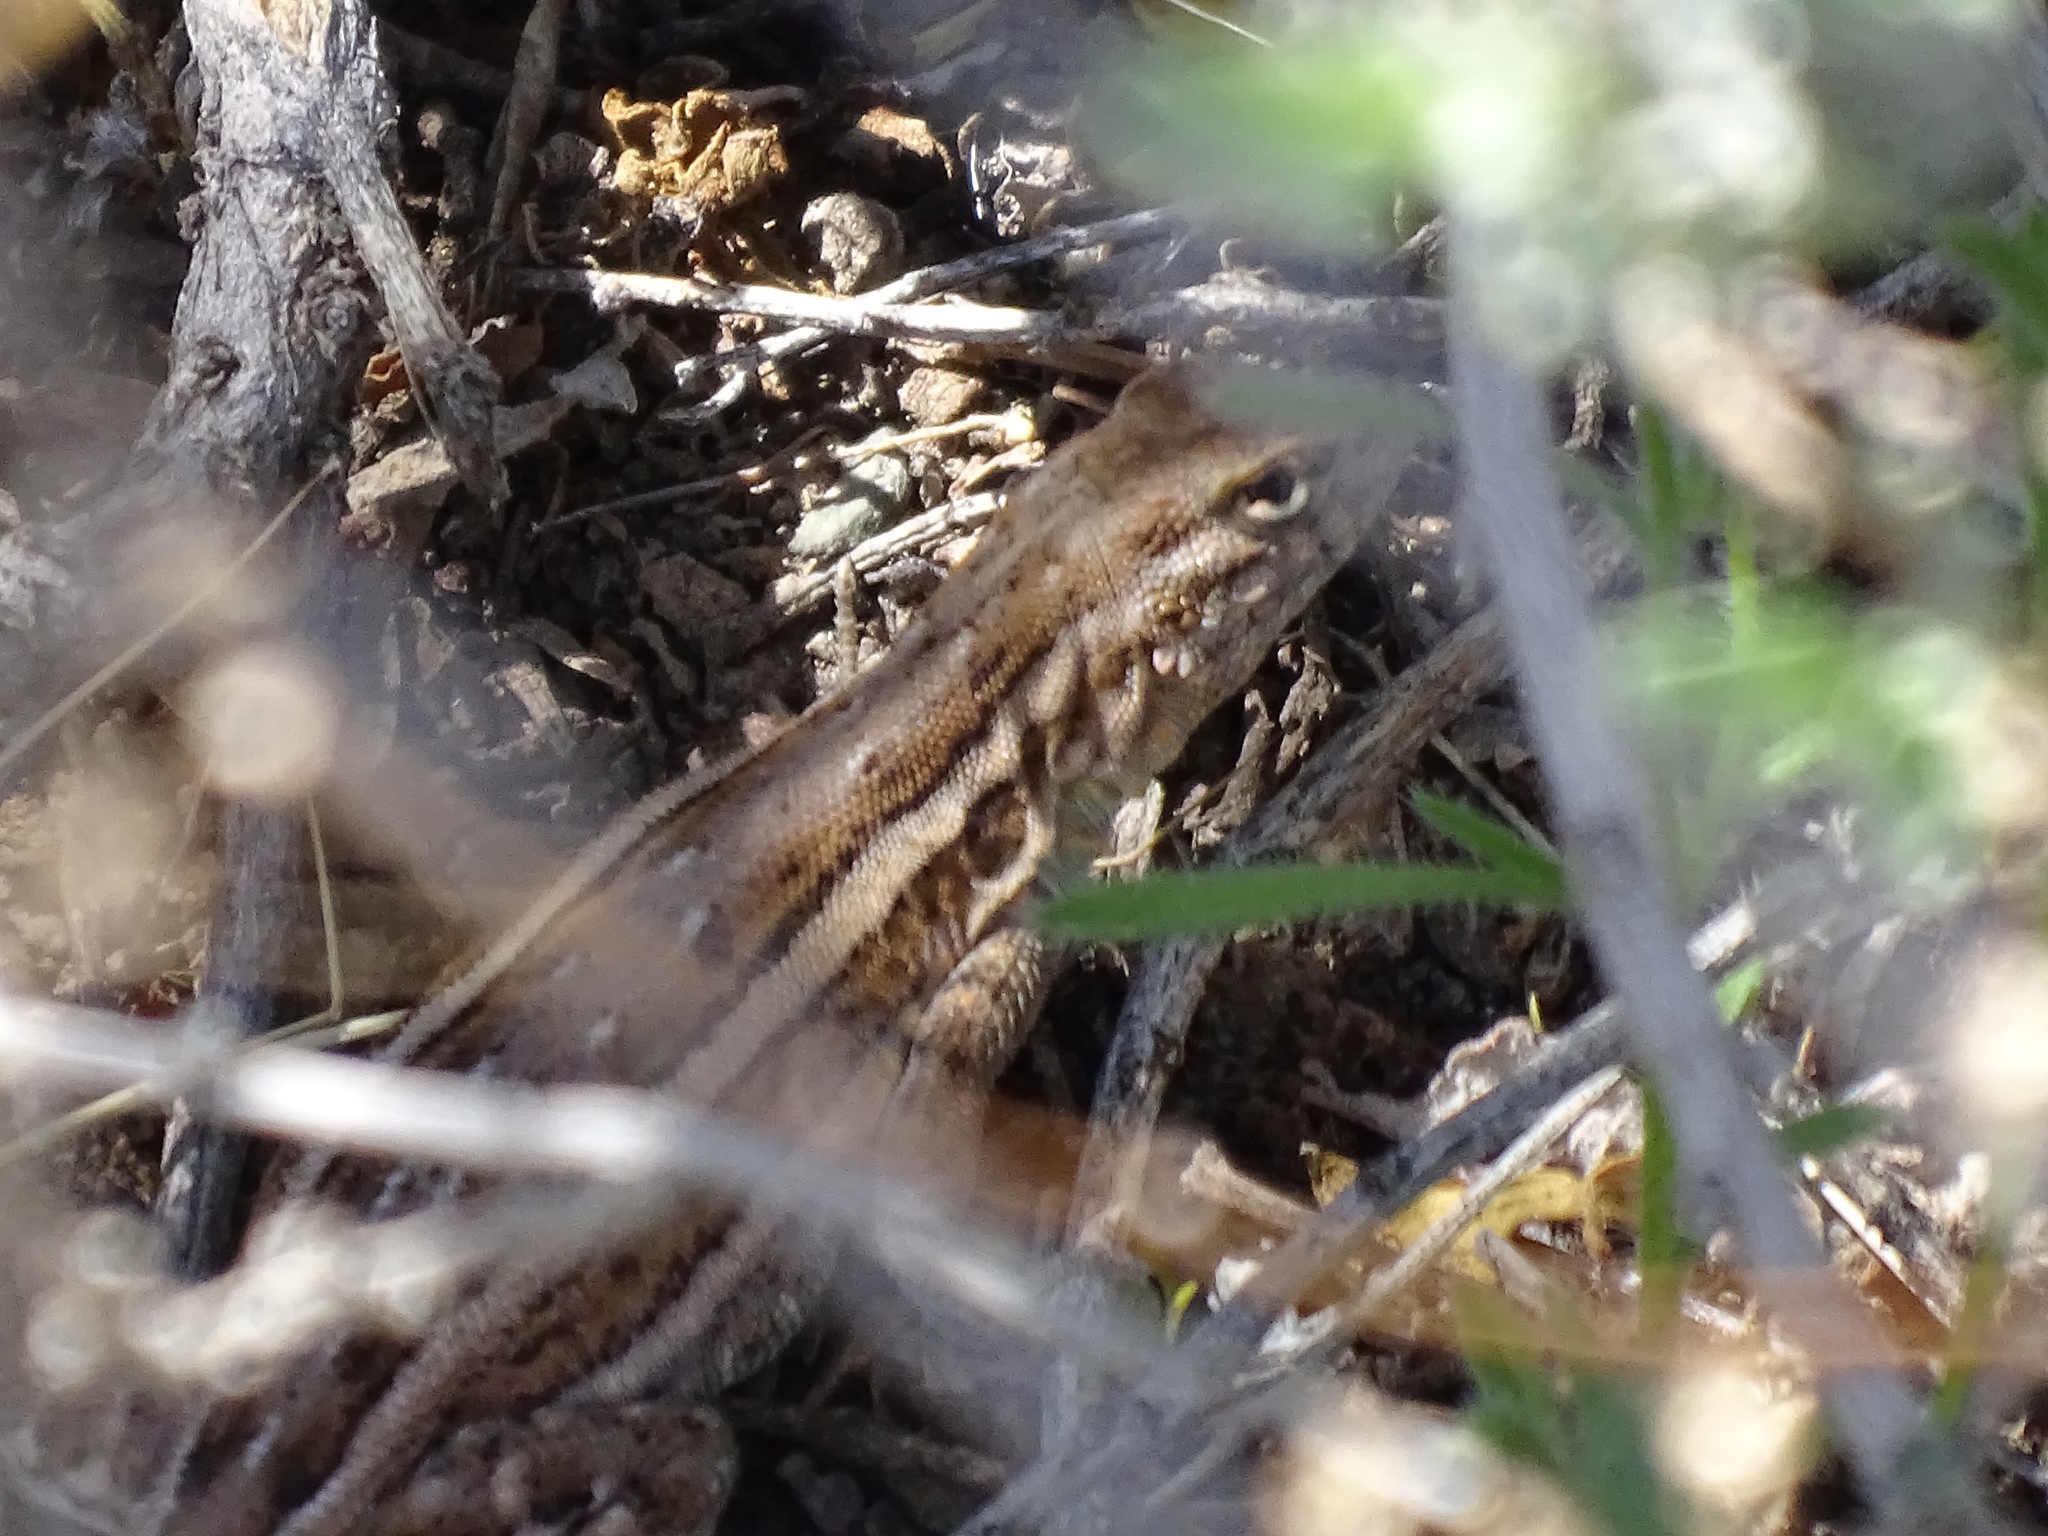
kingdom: Animalia
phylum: Chordata
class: Squamata
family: Phrynosomatidae
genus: Uta
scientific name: Uta stansburiana
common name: Side-blotched lizard
